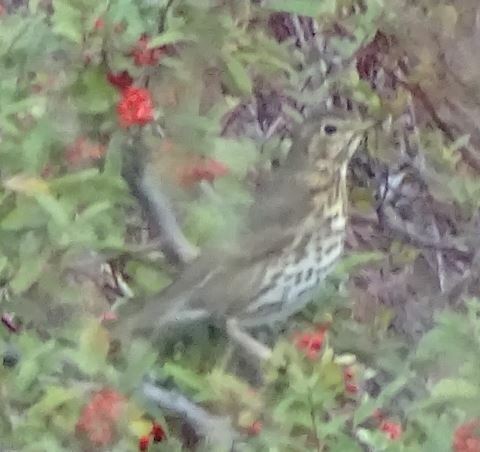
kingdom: Animalia
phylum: Chordata
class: Aves
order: Passeriformes
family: Turdidae
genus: Turdus
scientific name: Turdus philomelos
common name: Song thrush
